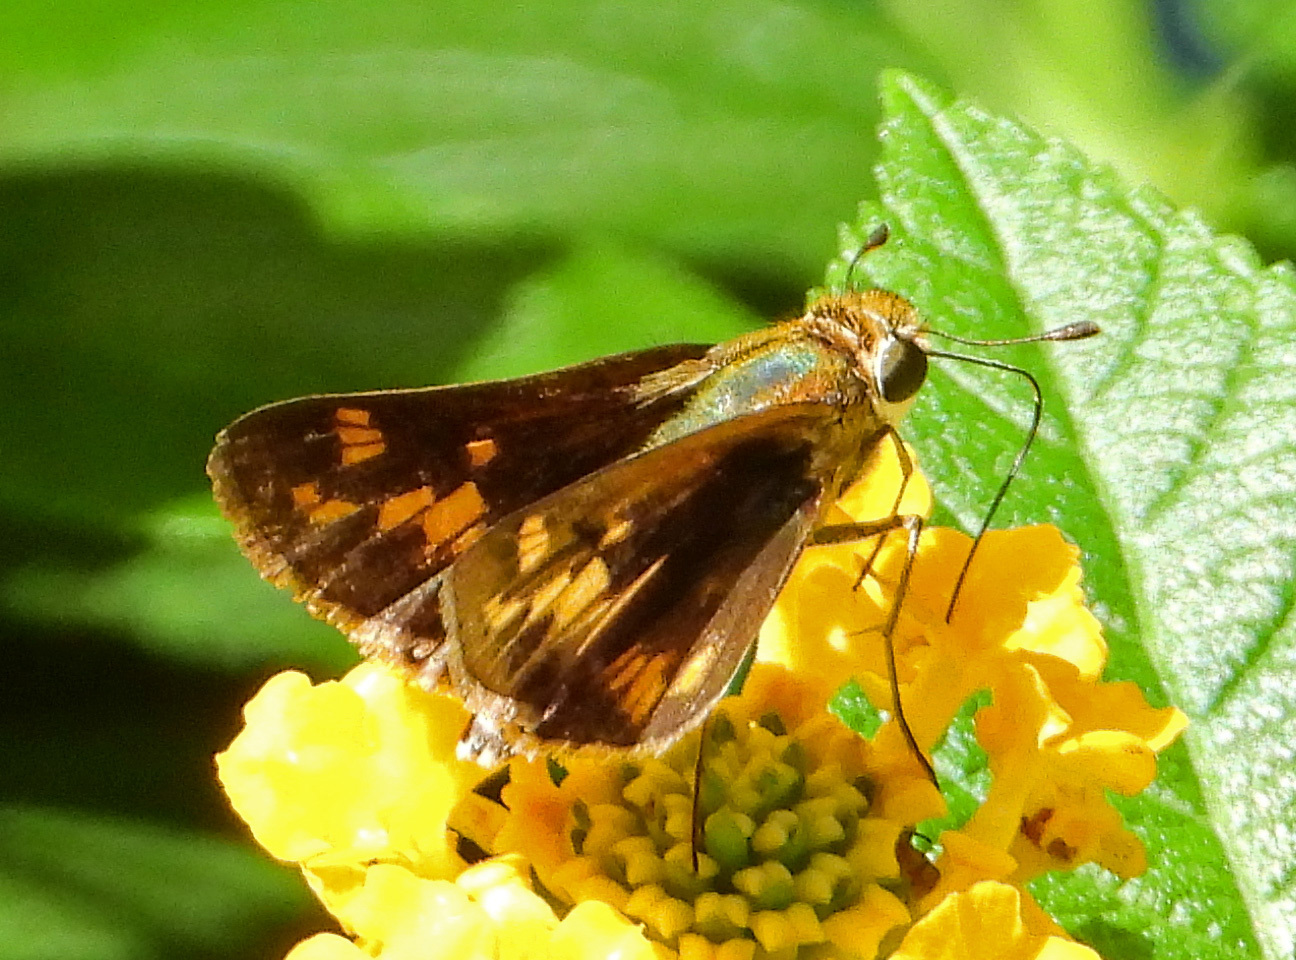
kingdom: Animalia
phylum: Arthropoda
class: Insecta
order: Lepidoptera
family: Hesperiidae
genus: Hylephila
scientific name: Hylephila phyleus
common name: Fiery skipper
